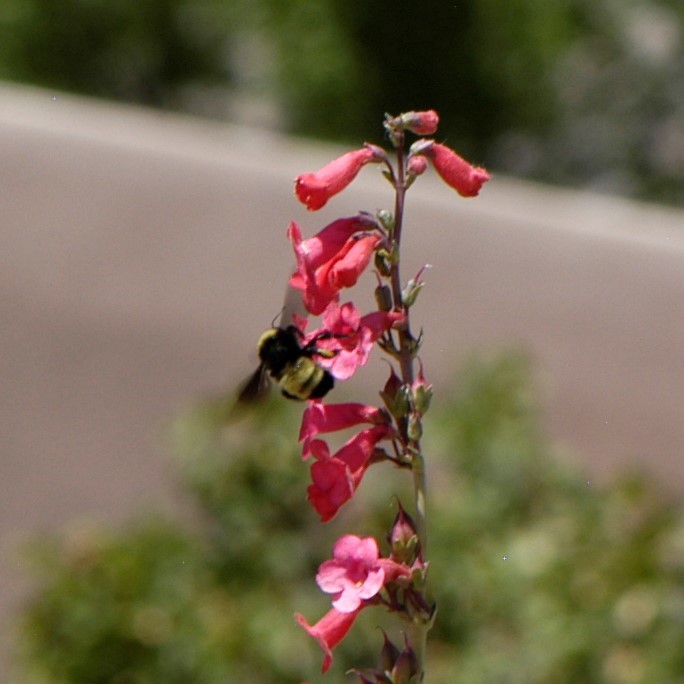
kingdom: Animalia
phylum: Arthropoda
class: Insecta
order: Hymenoptera
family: Apidae
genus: Bombus
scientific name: Bombus pensylvanicus
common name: Bumble bee
